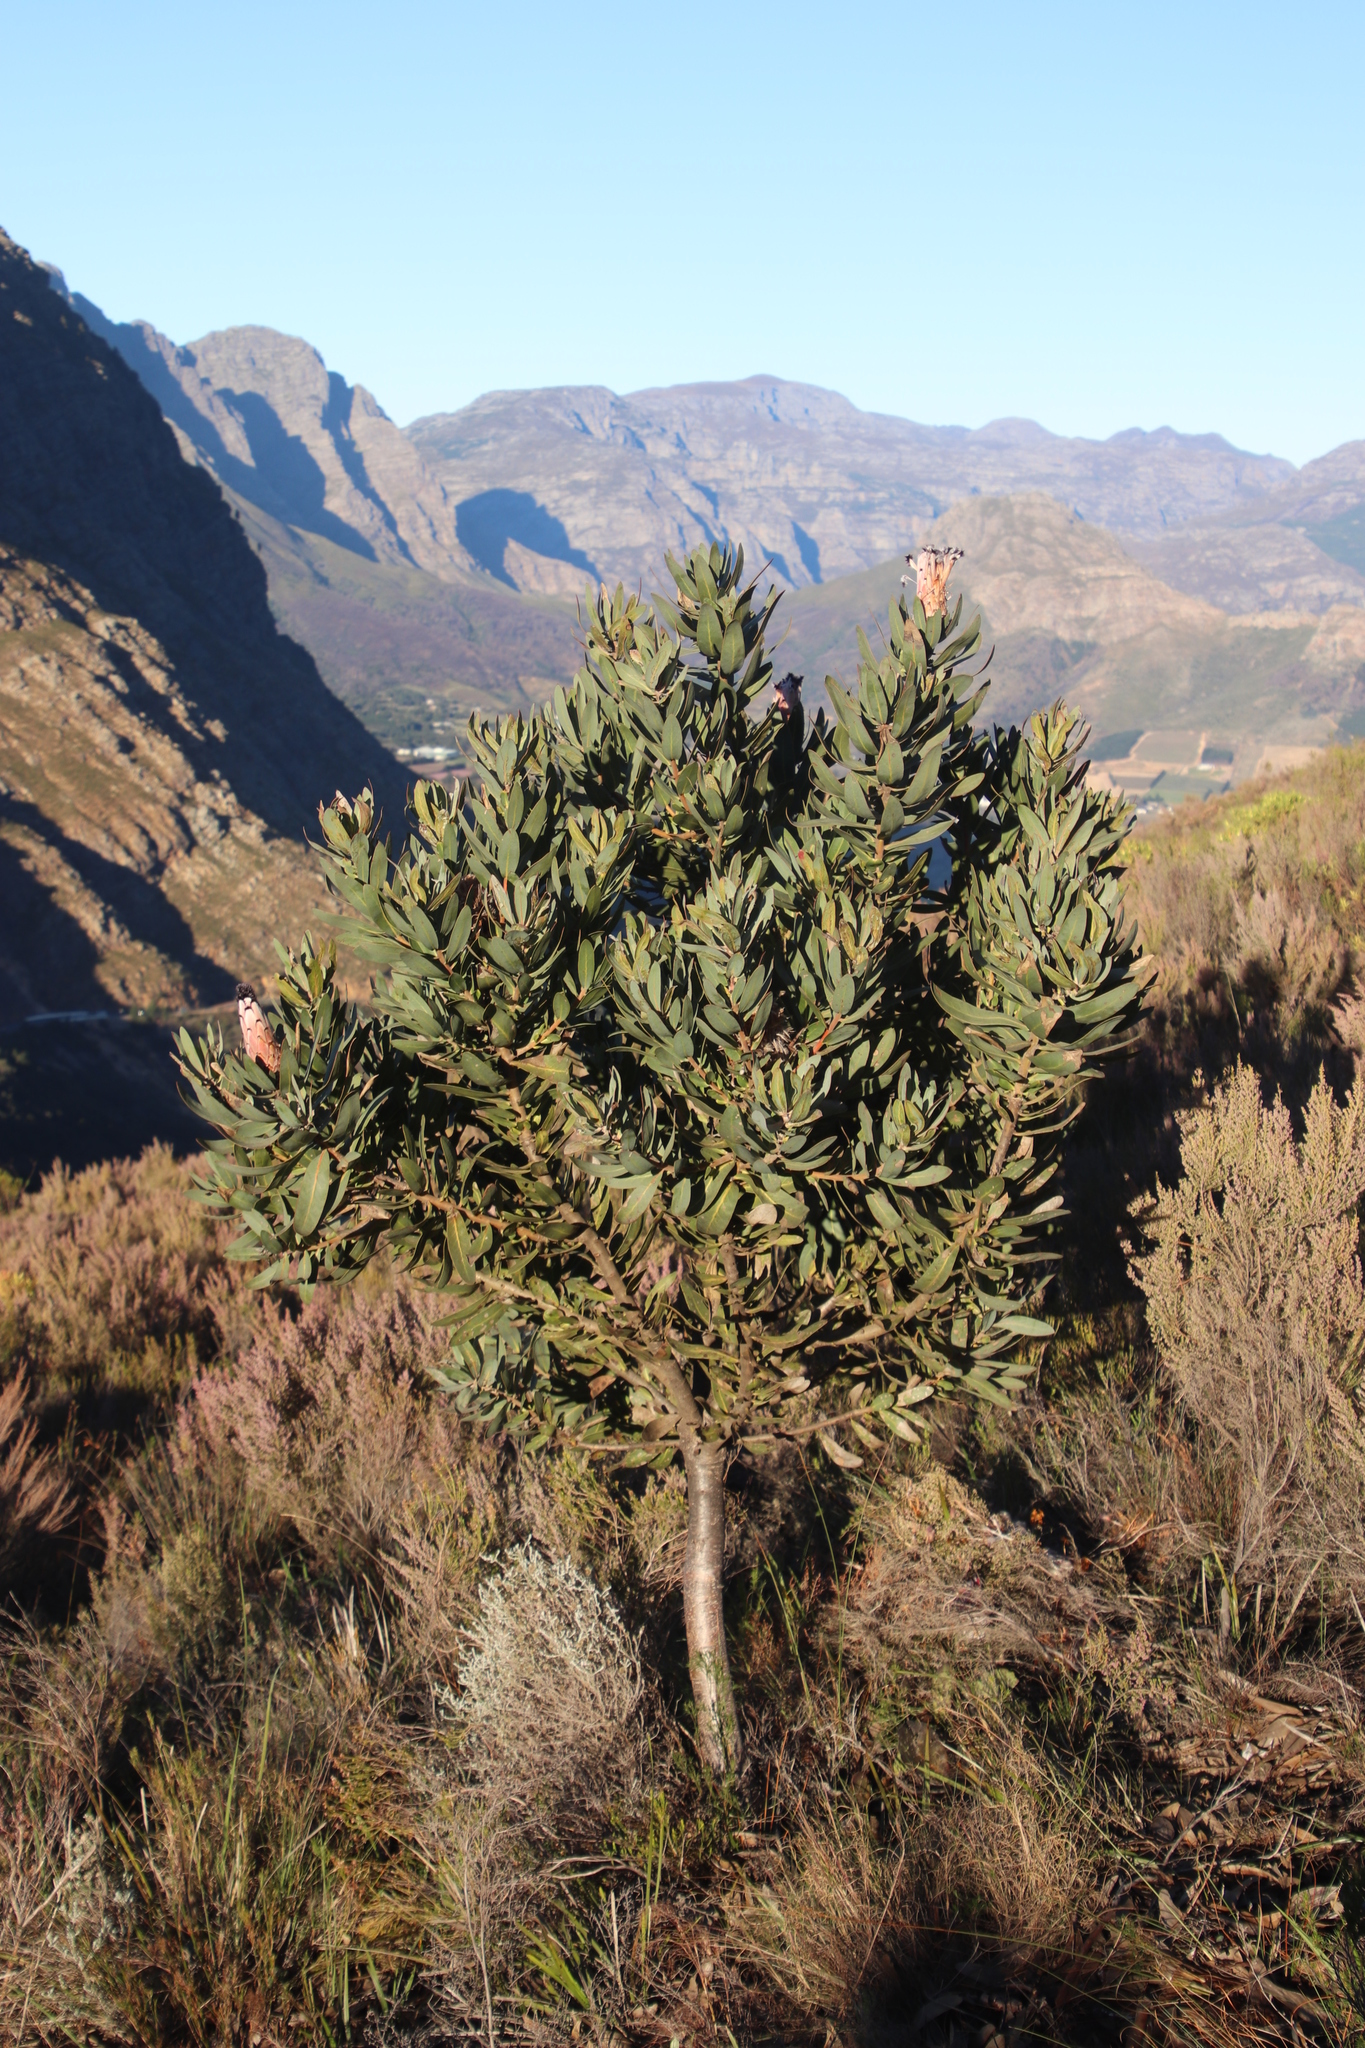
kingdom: Plantae
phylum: Tracheophyta
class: Magnoliopsida
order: Proteales
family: Proteaceae
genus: Protea
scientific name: Protea laurifolia
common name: Grey-leaf sugarbsh
